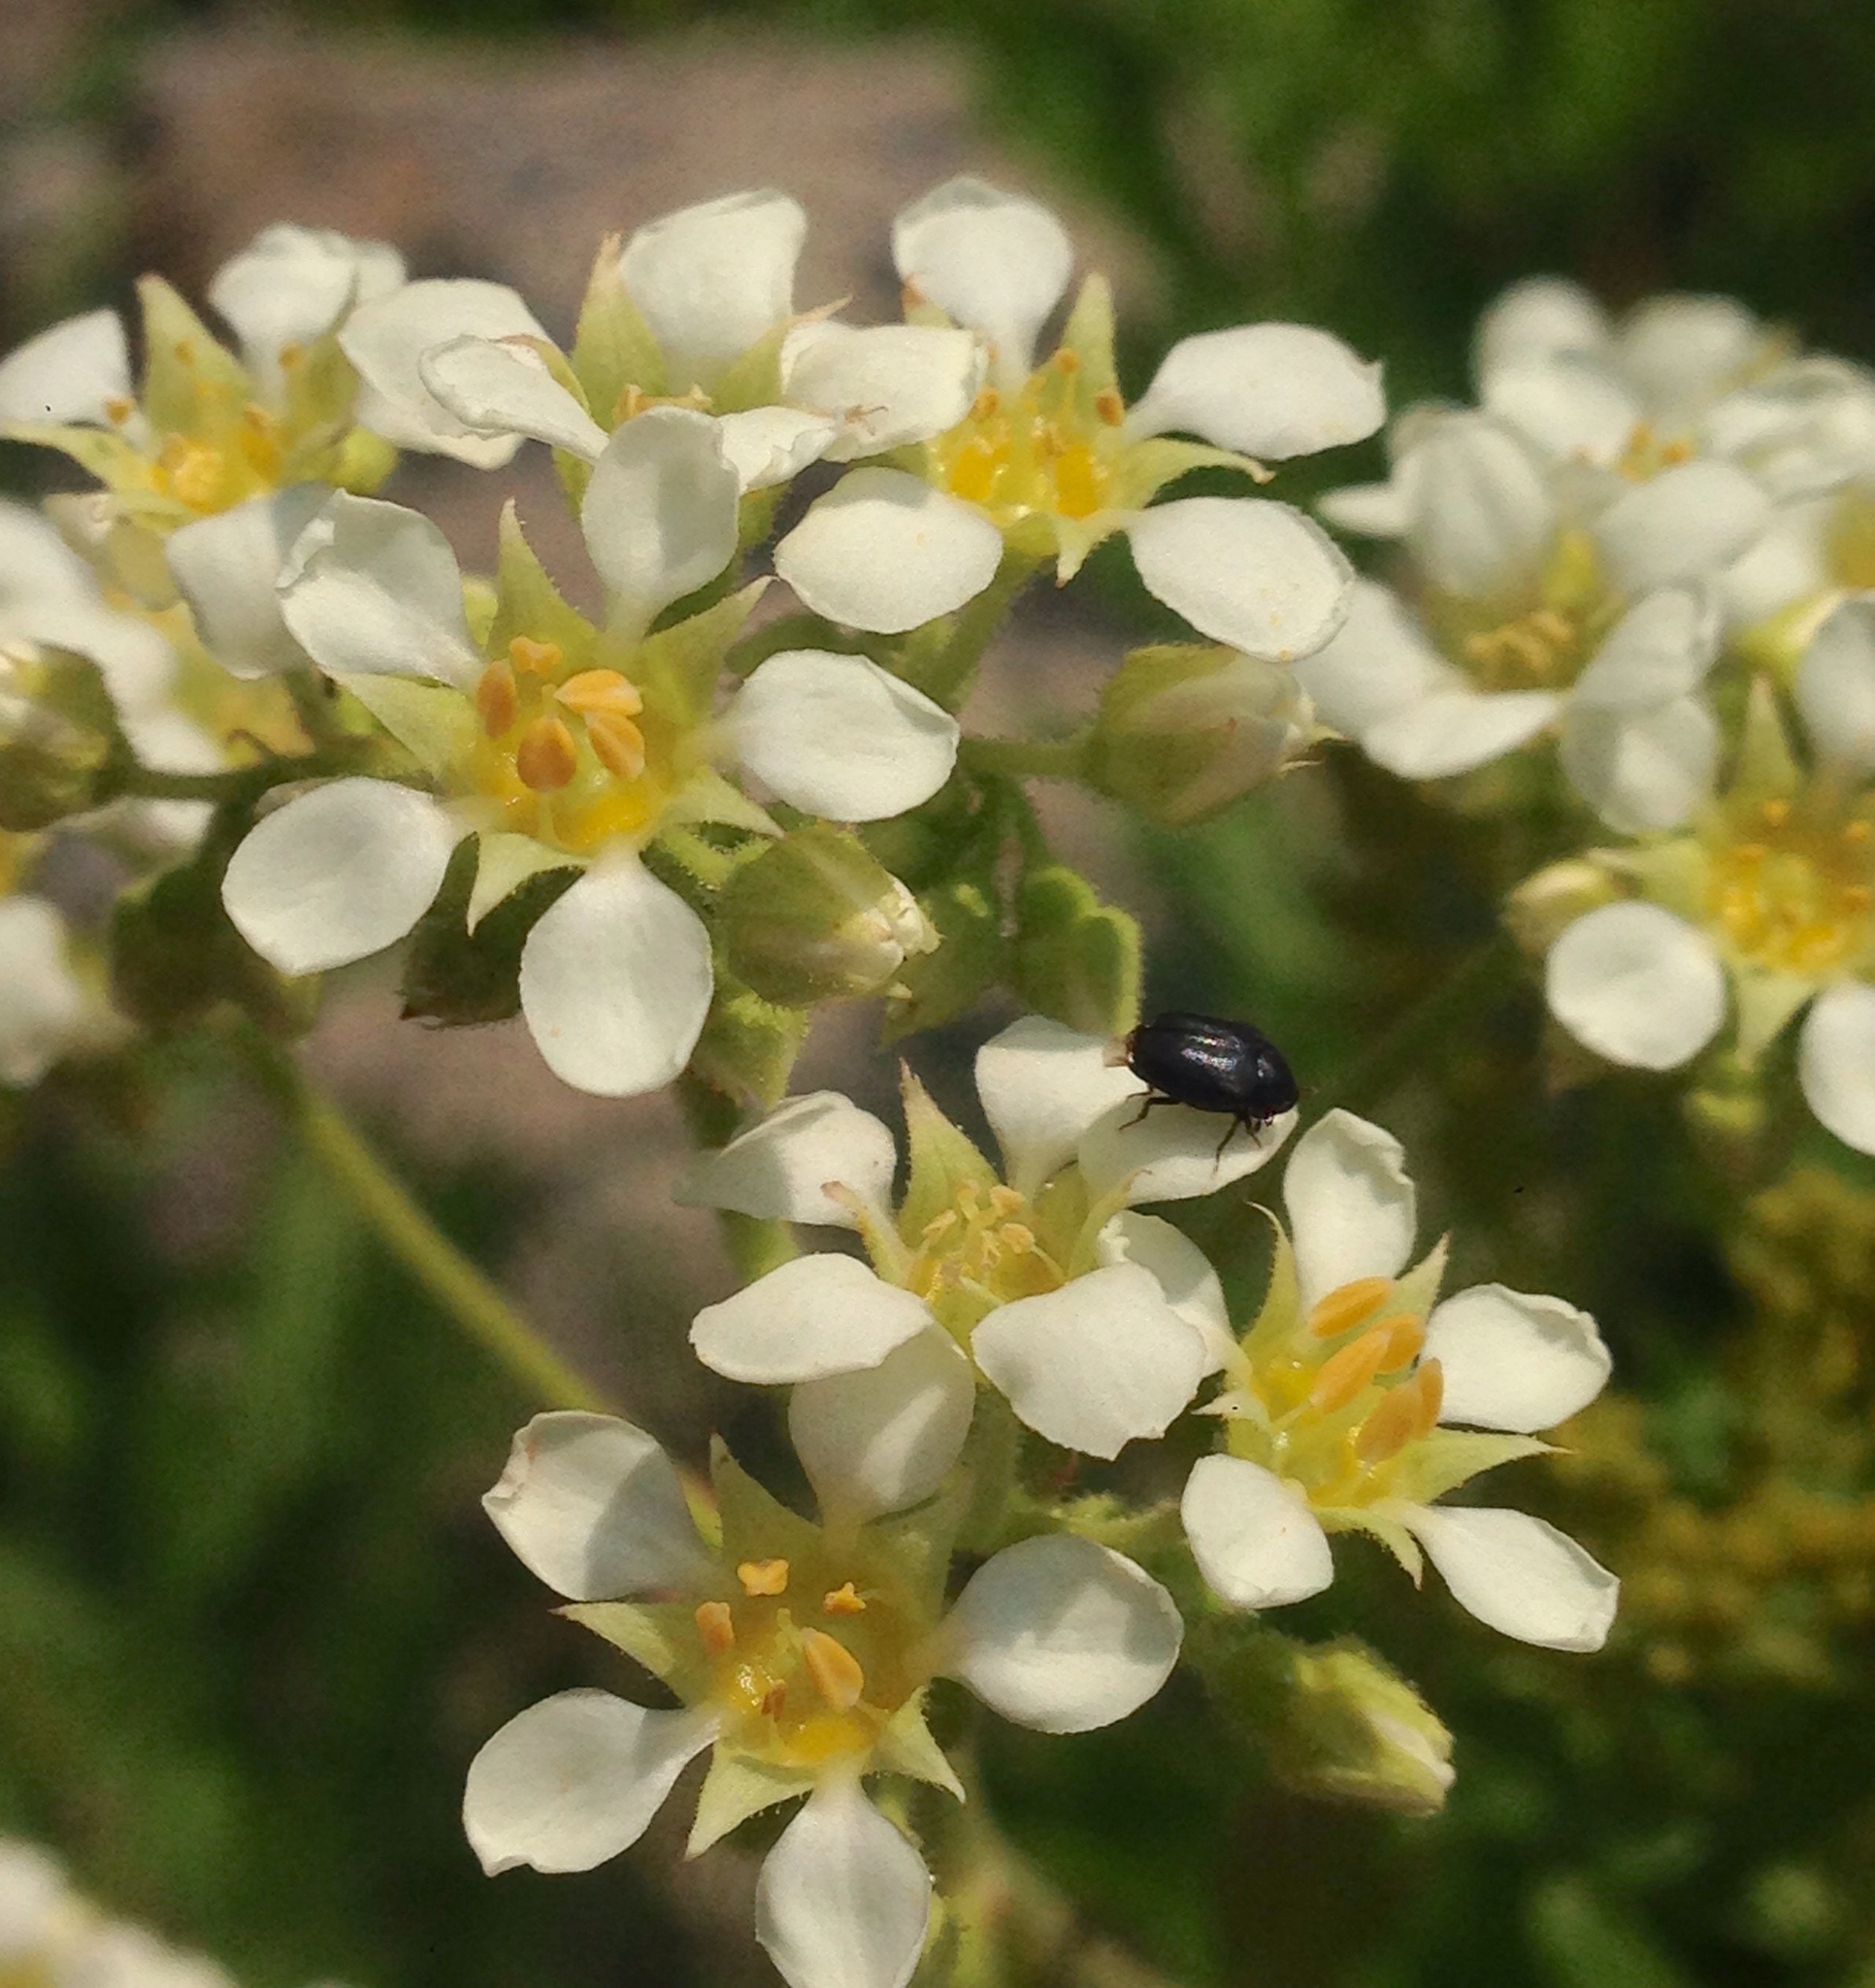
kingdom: Plantae
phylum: Tracheophyta
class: Magnoliopsida
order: Saxifragales
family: Saxifragaceae
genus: Boykinia
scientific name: Boykinia major
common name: Large boykinia
